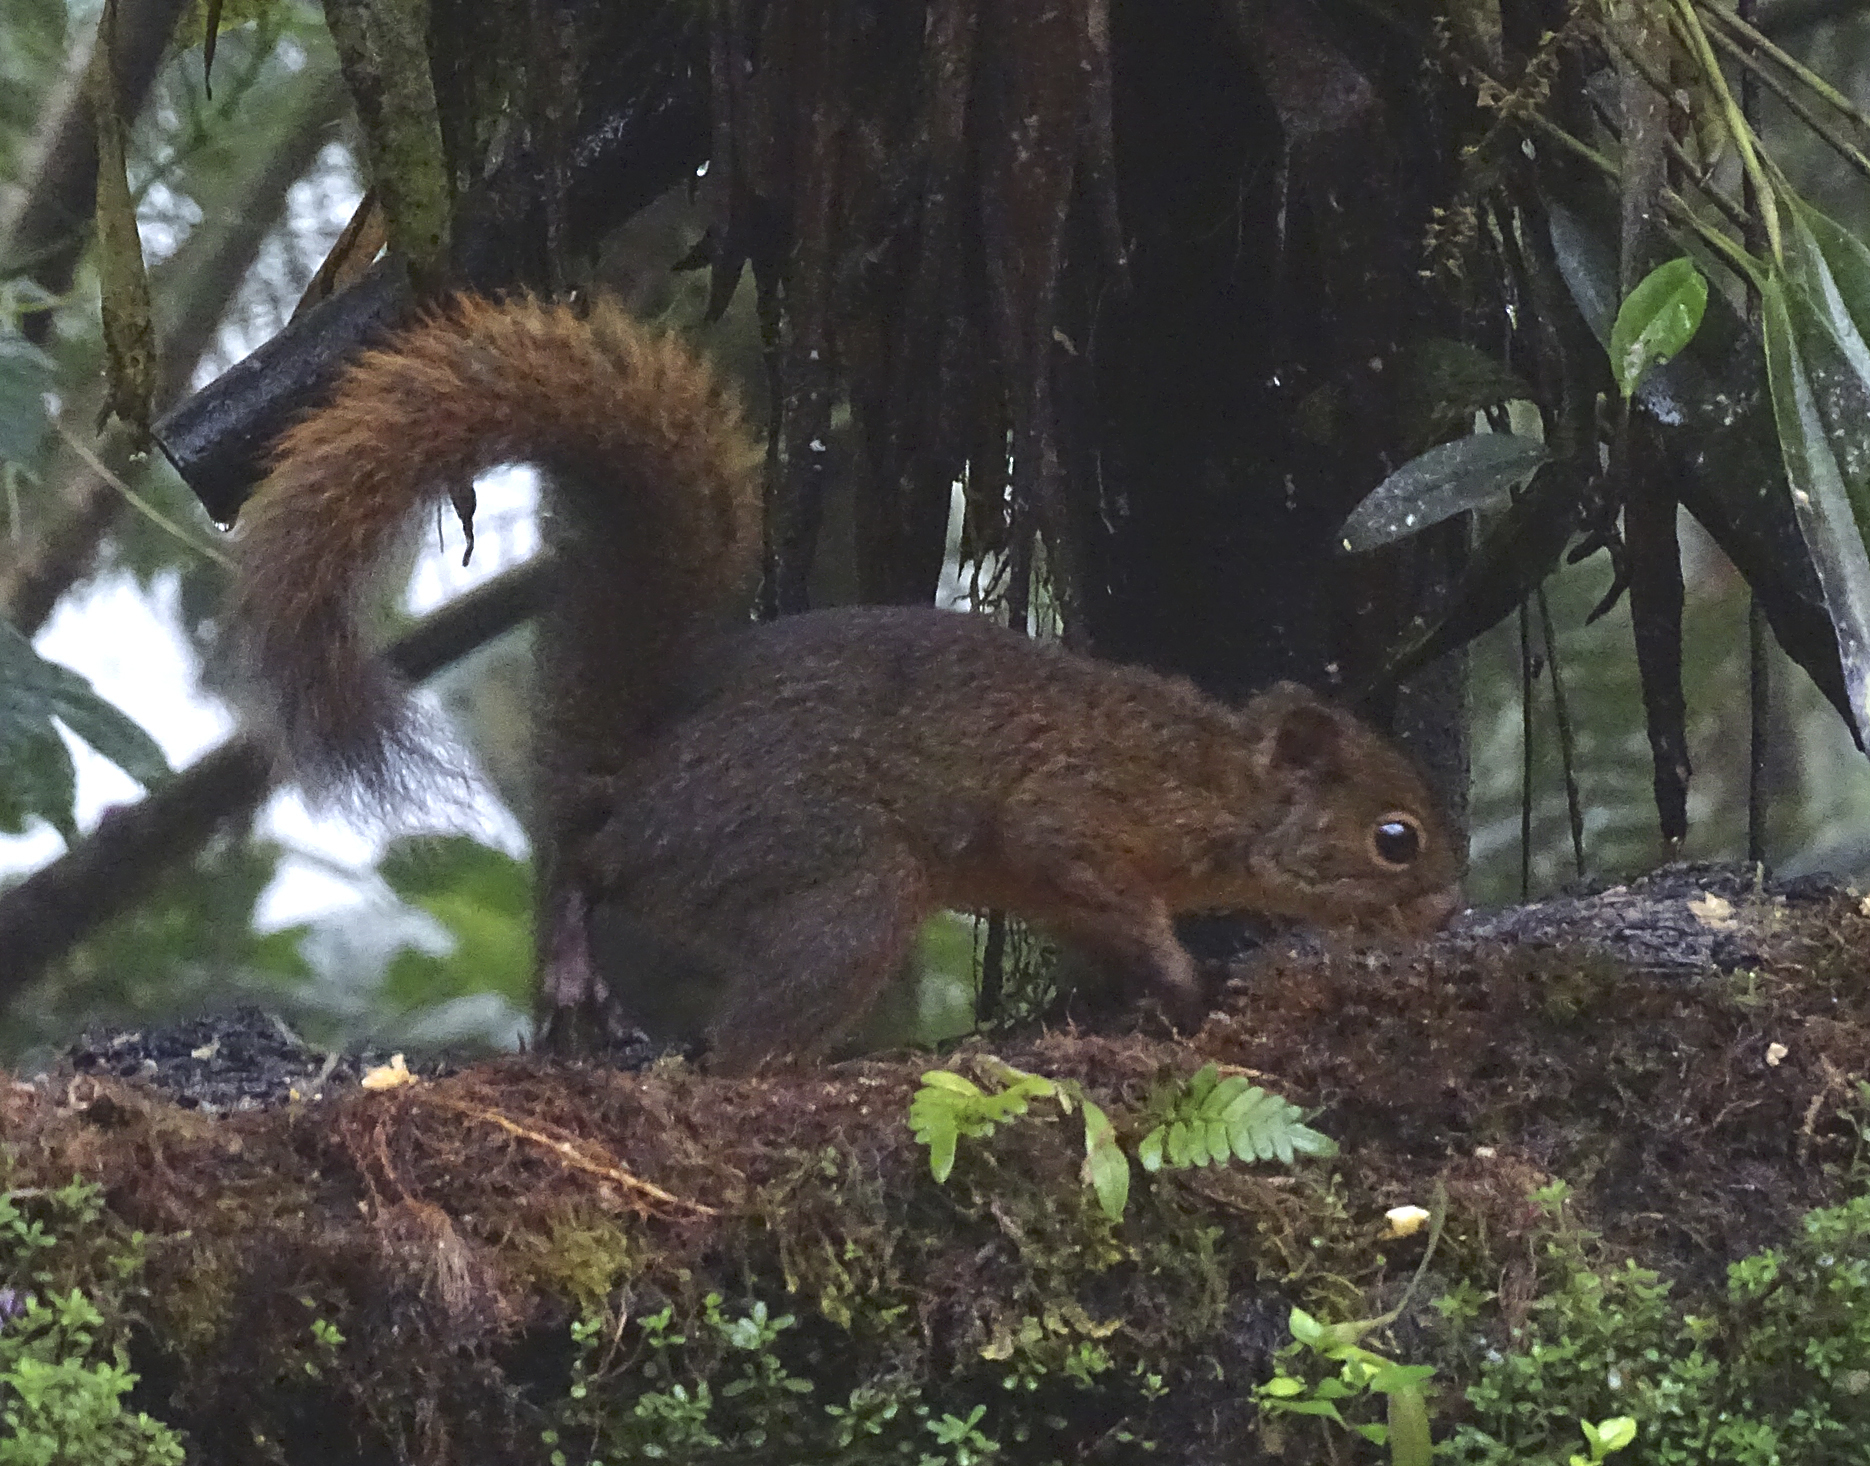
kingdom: Animalia
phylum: Chordata
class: Mammalia
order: Rodentia
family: Sciuridae
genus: Sciurus
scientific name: Sciurus granatensis
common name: Red-tailed squirrel
